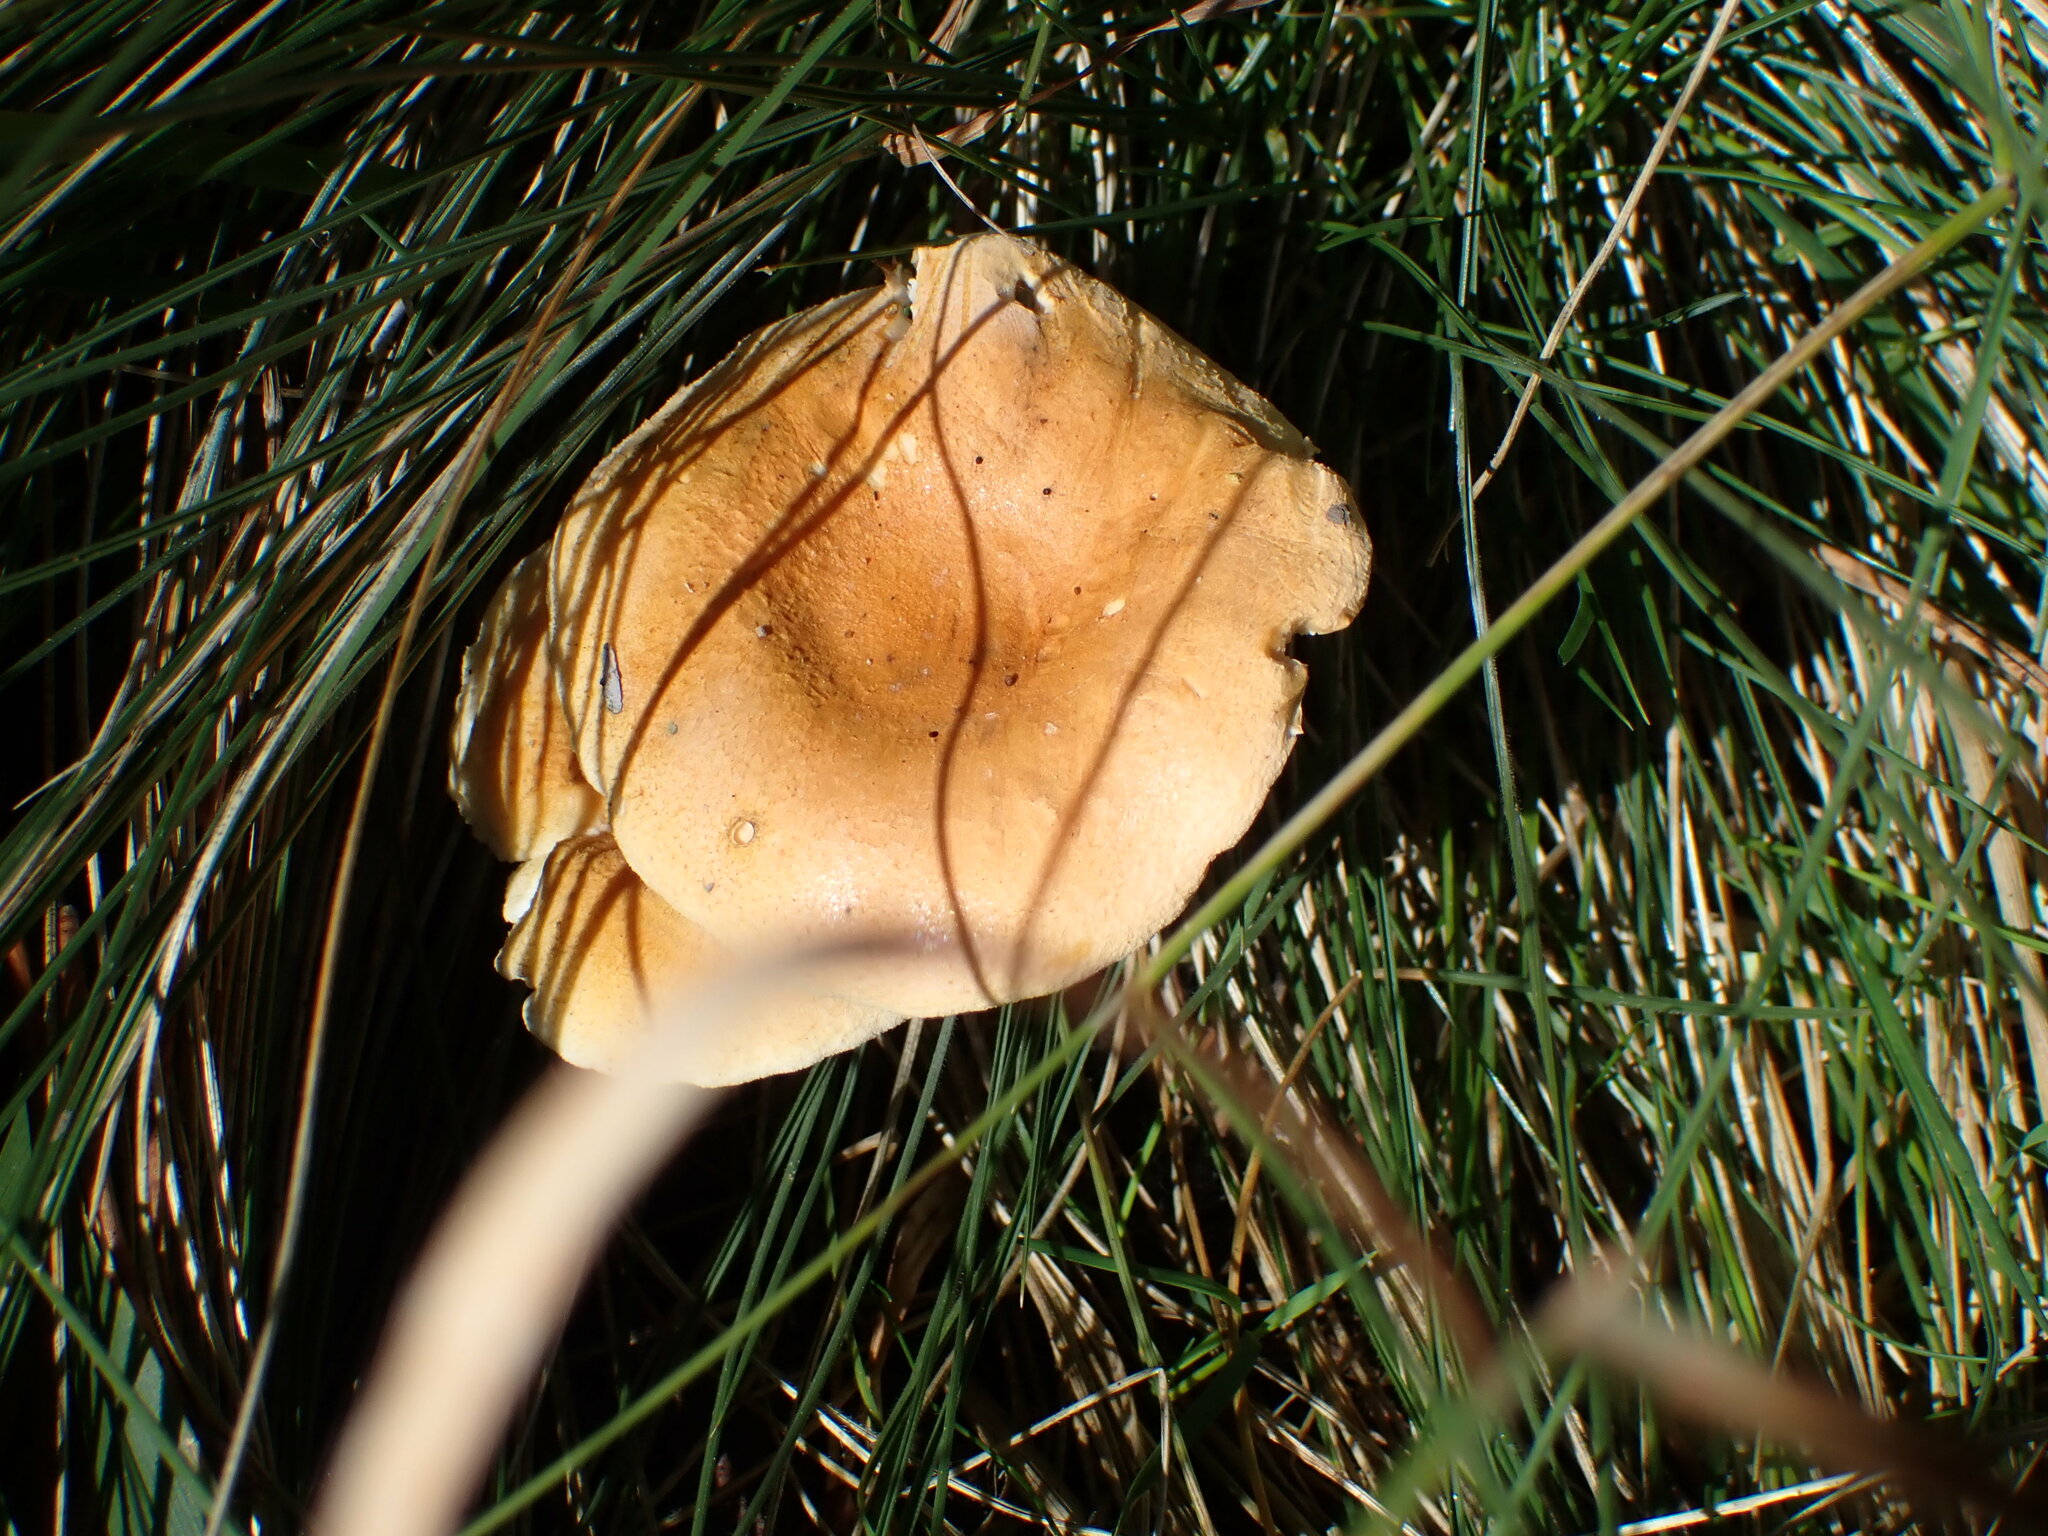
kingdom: Fungi
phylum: Basidiomycota
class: Agaricomycetes
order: Boletales
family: Hygrophoropsidaceae
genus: Hygrophoropsis
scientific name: Hygrophoropsis aurantiaca
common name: False chanterelle
